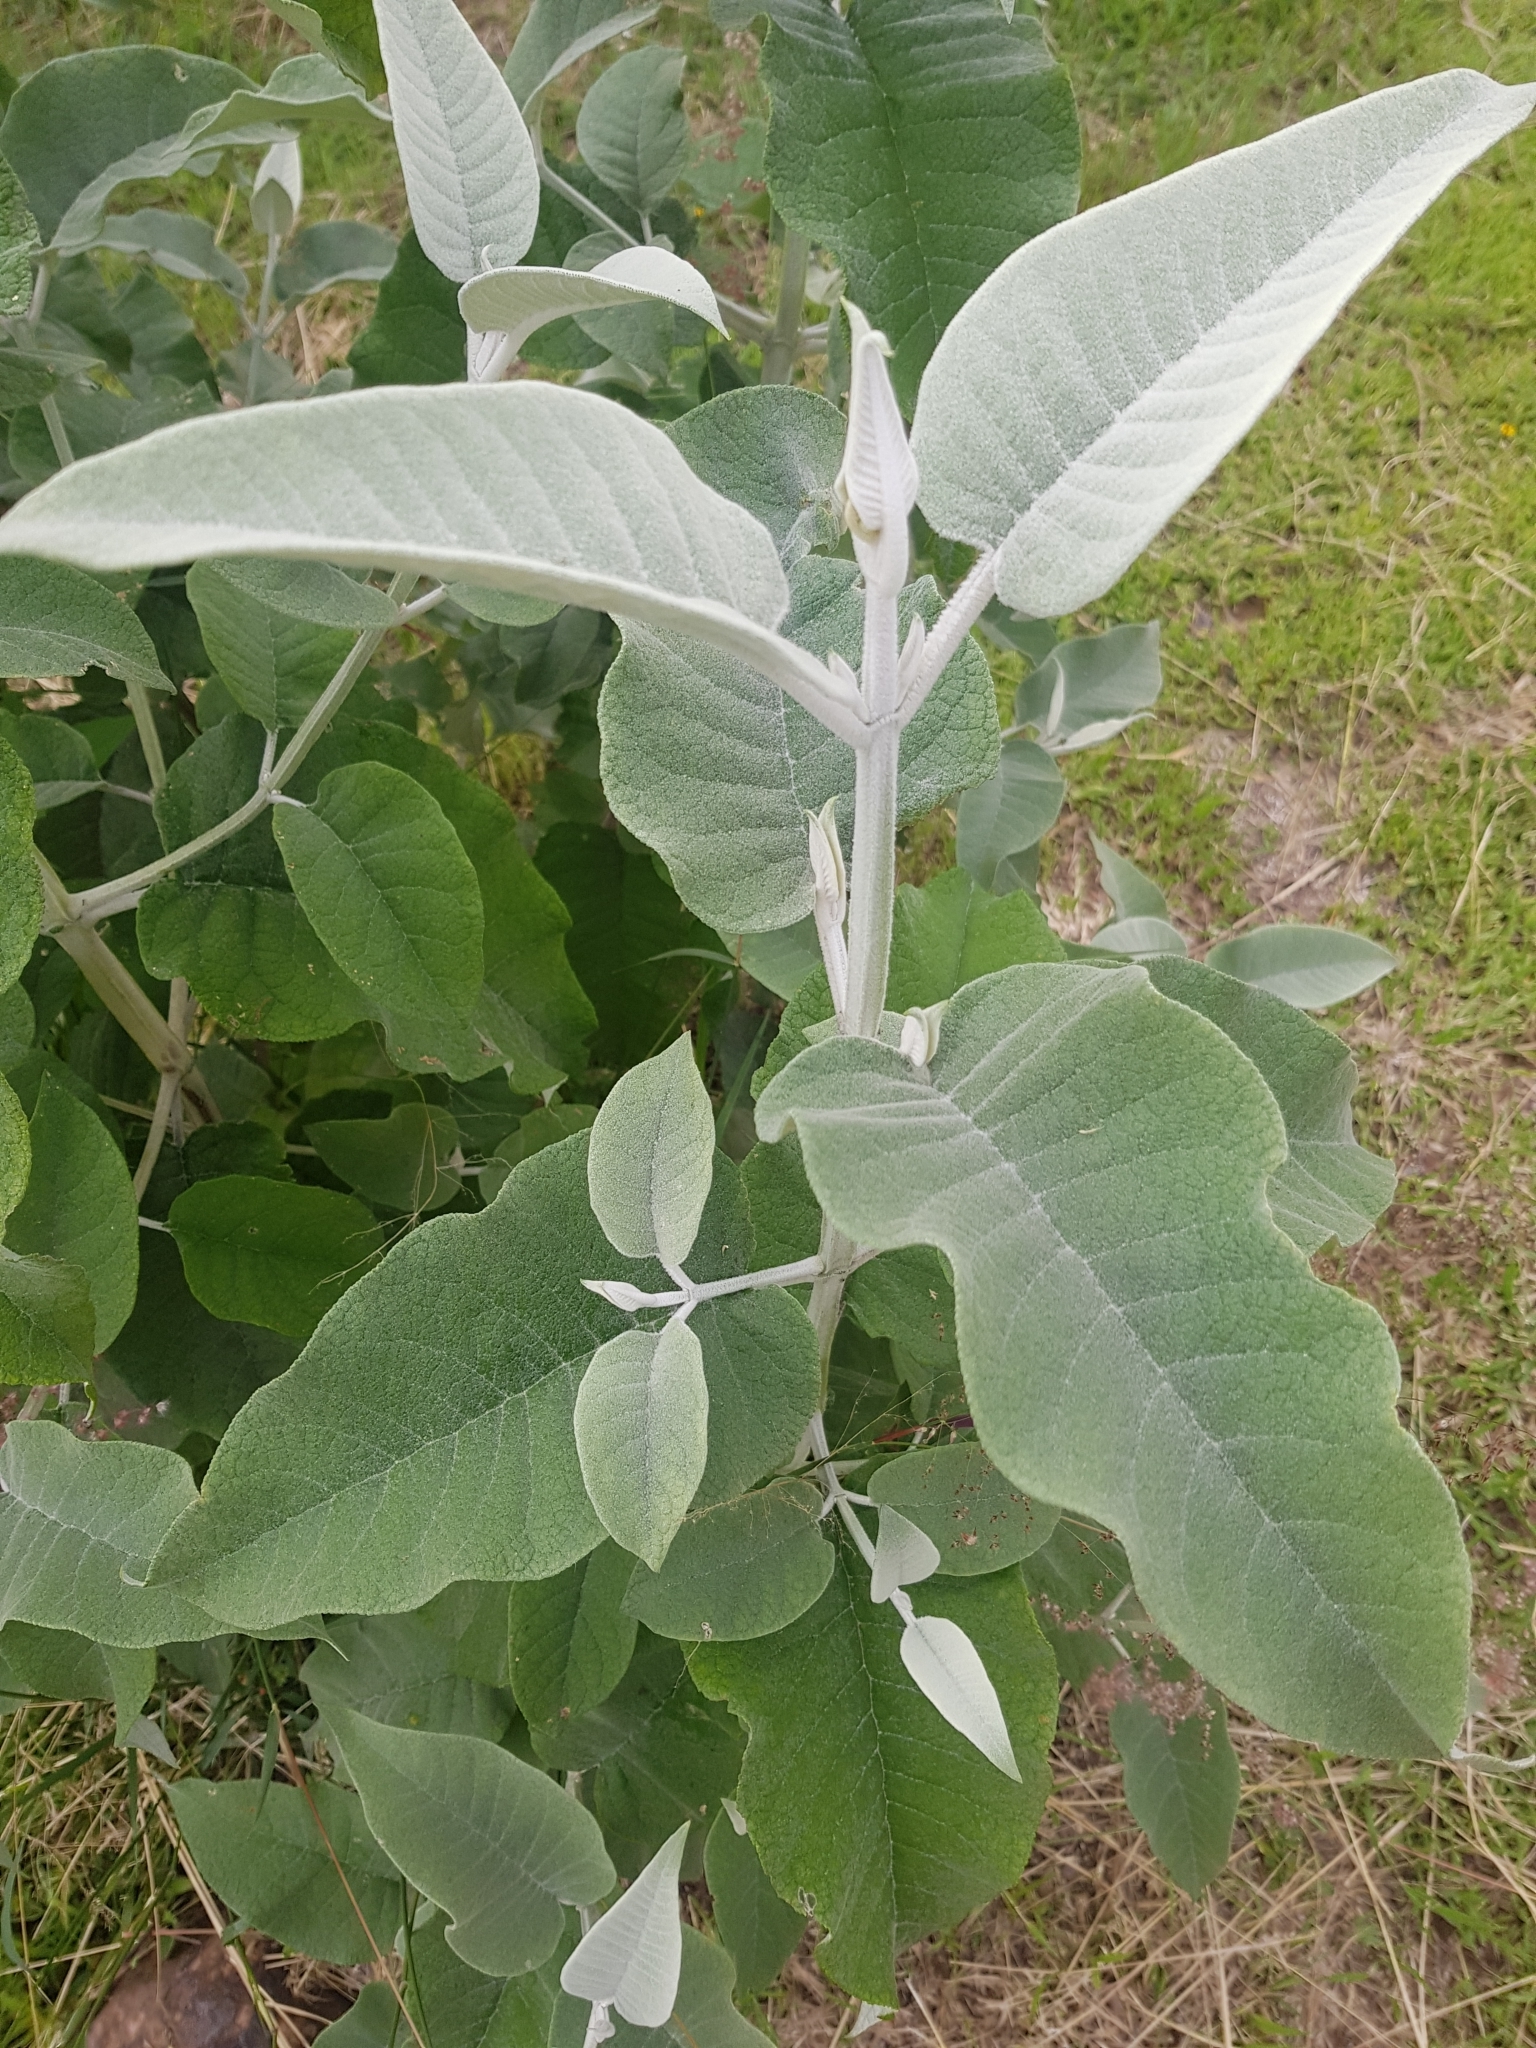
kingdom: Plantae
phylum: Tracheophyta
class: Magnoliopsida
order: Lamiales
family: Scrophulariaceae
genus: Buddleja
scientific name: Buddleja cordata
